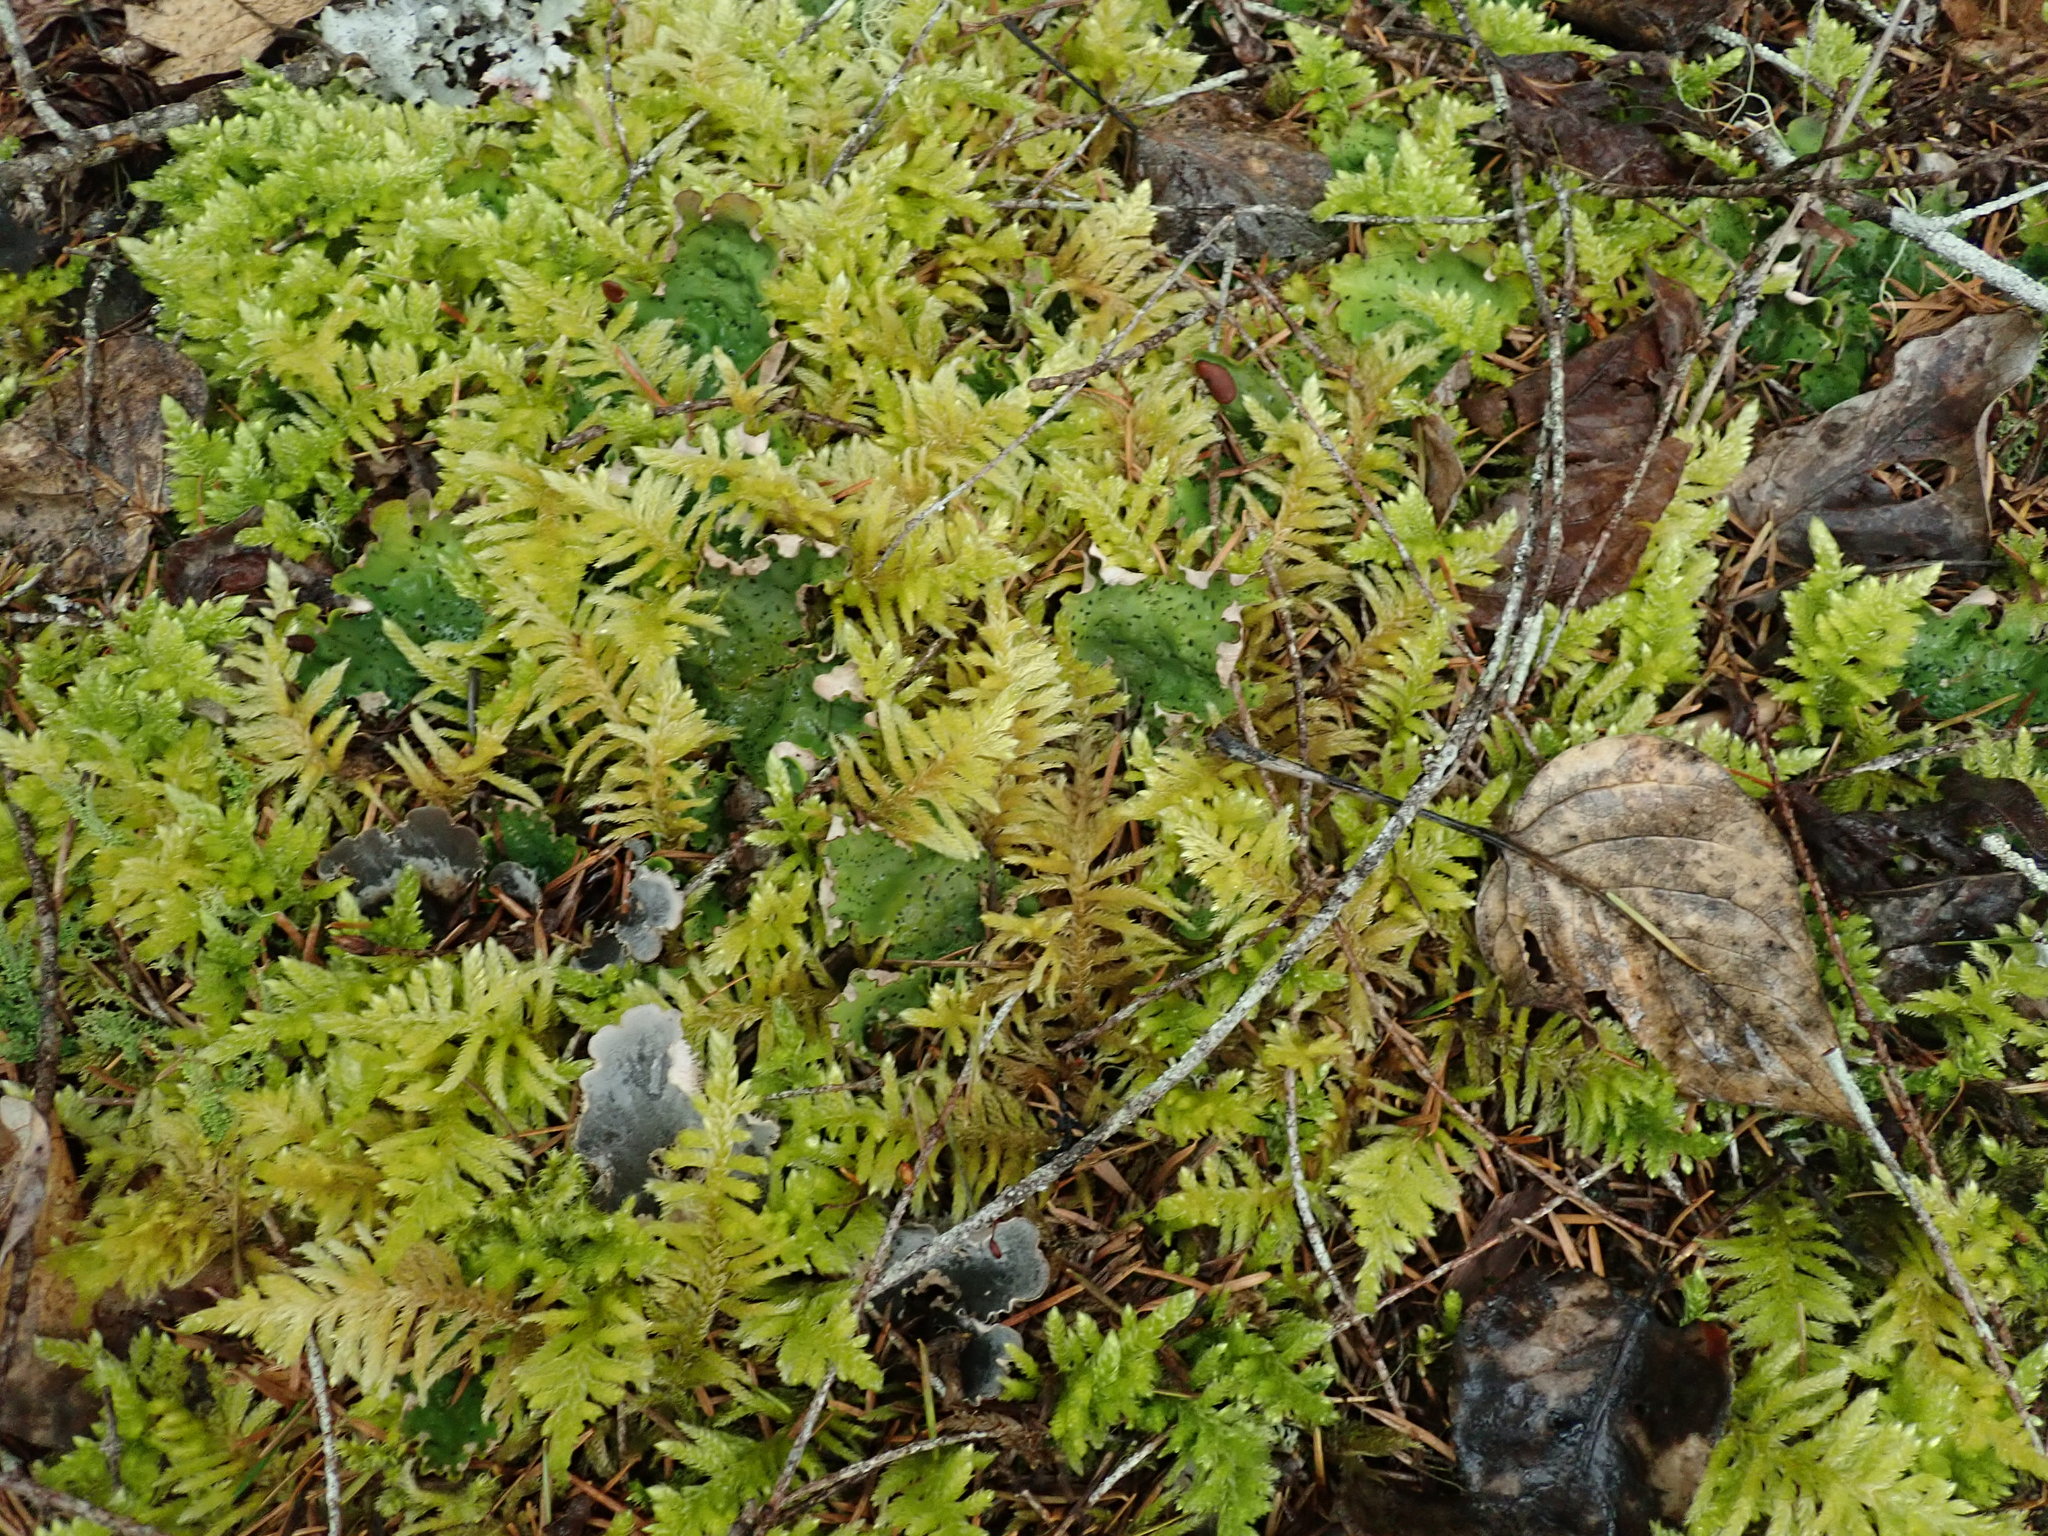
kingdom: Plantae
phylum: Bryophyta
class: Bryopsida
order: Hypnales
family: Brachytheciaceae
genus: Homalothecium
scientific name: Homalothecium megaptilum
